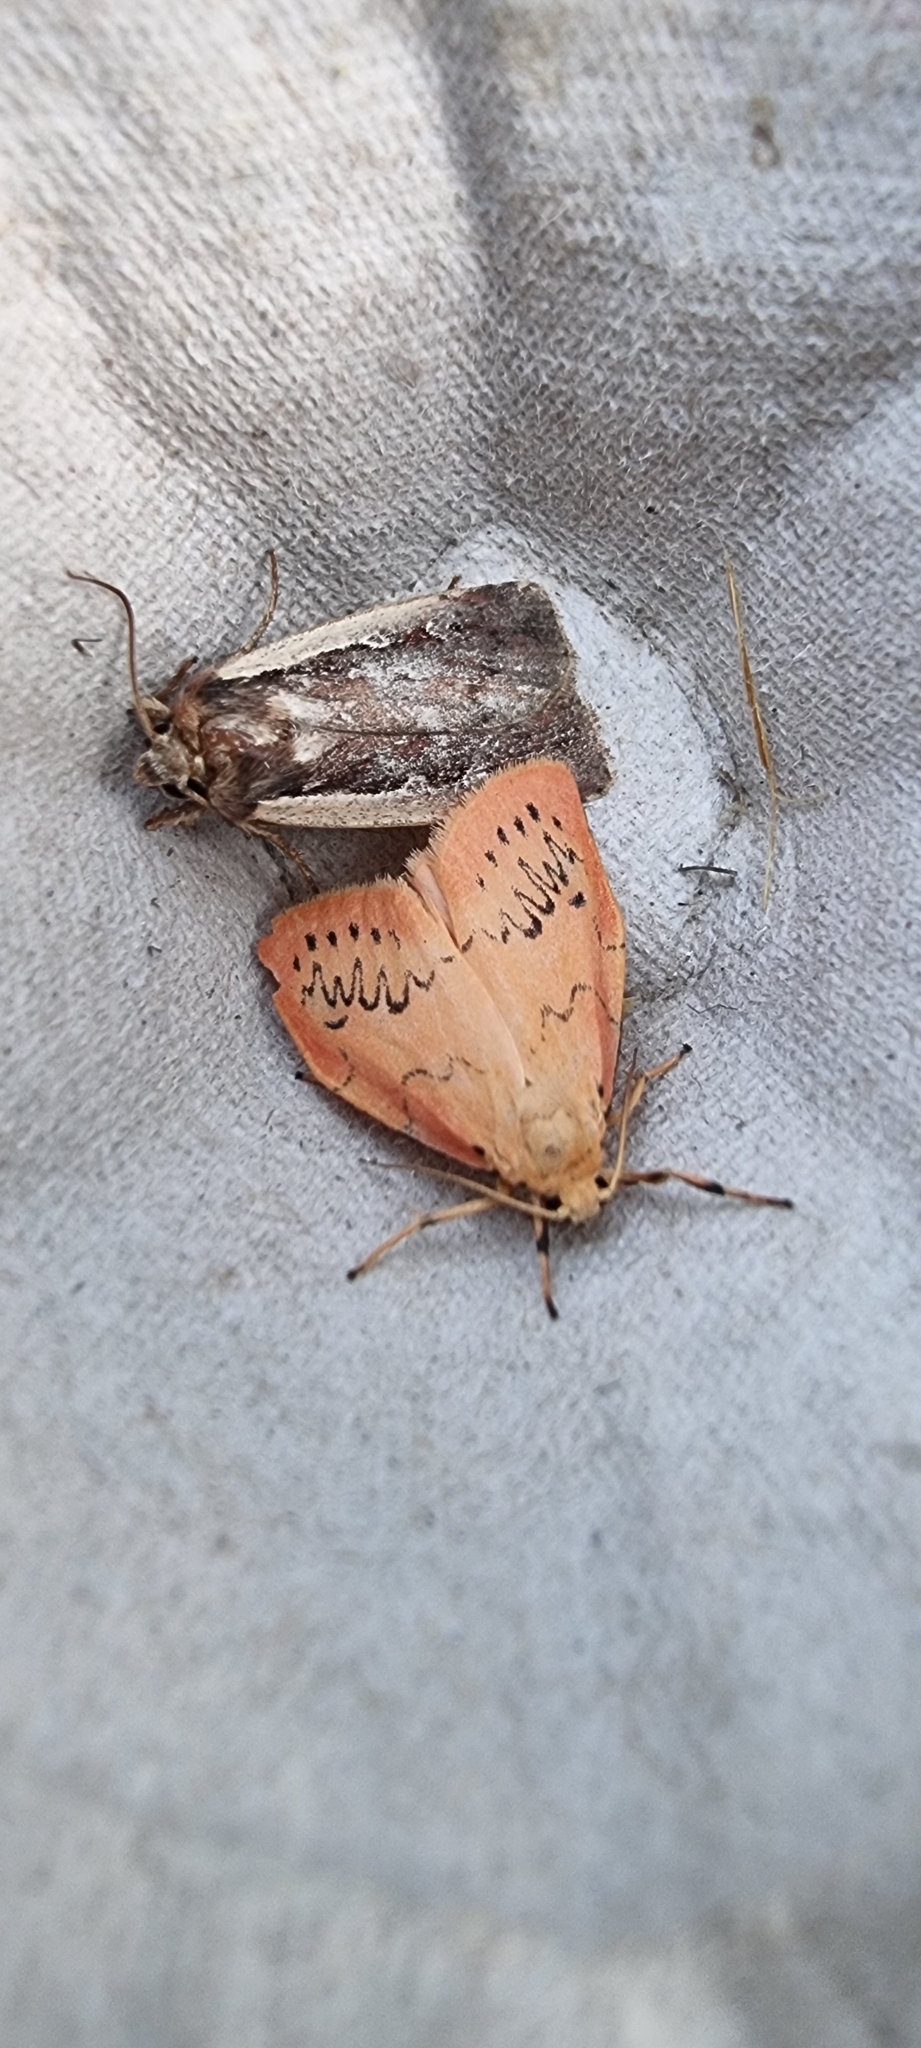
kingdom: Animalia
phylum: Arthropoda
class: Insecta
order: Lepidoptera
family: Erebidae
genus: Miltochrista
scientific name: Miltochrista miniata
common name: Rosy footman
